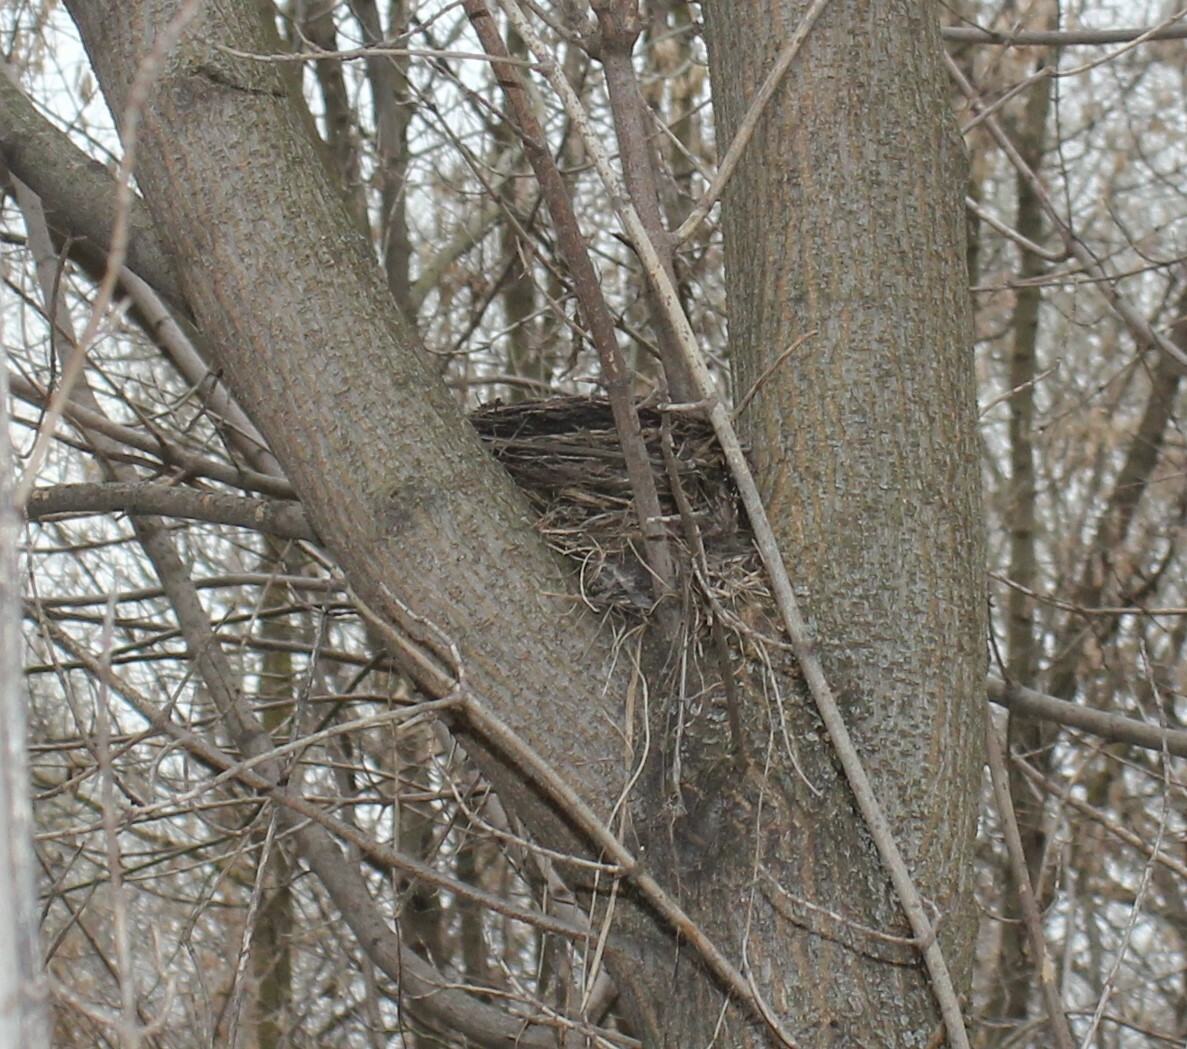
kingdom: Animalia
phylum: Chordata
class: Aves
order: Passeriformes
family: Turdidae
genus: Turdus
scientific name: Turdus pilaris
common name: Fieldfare
